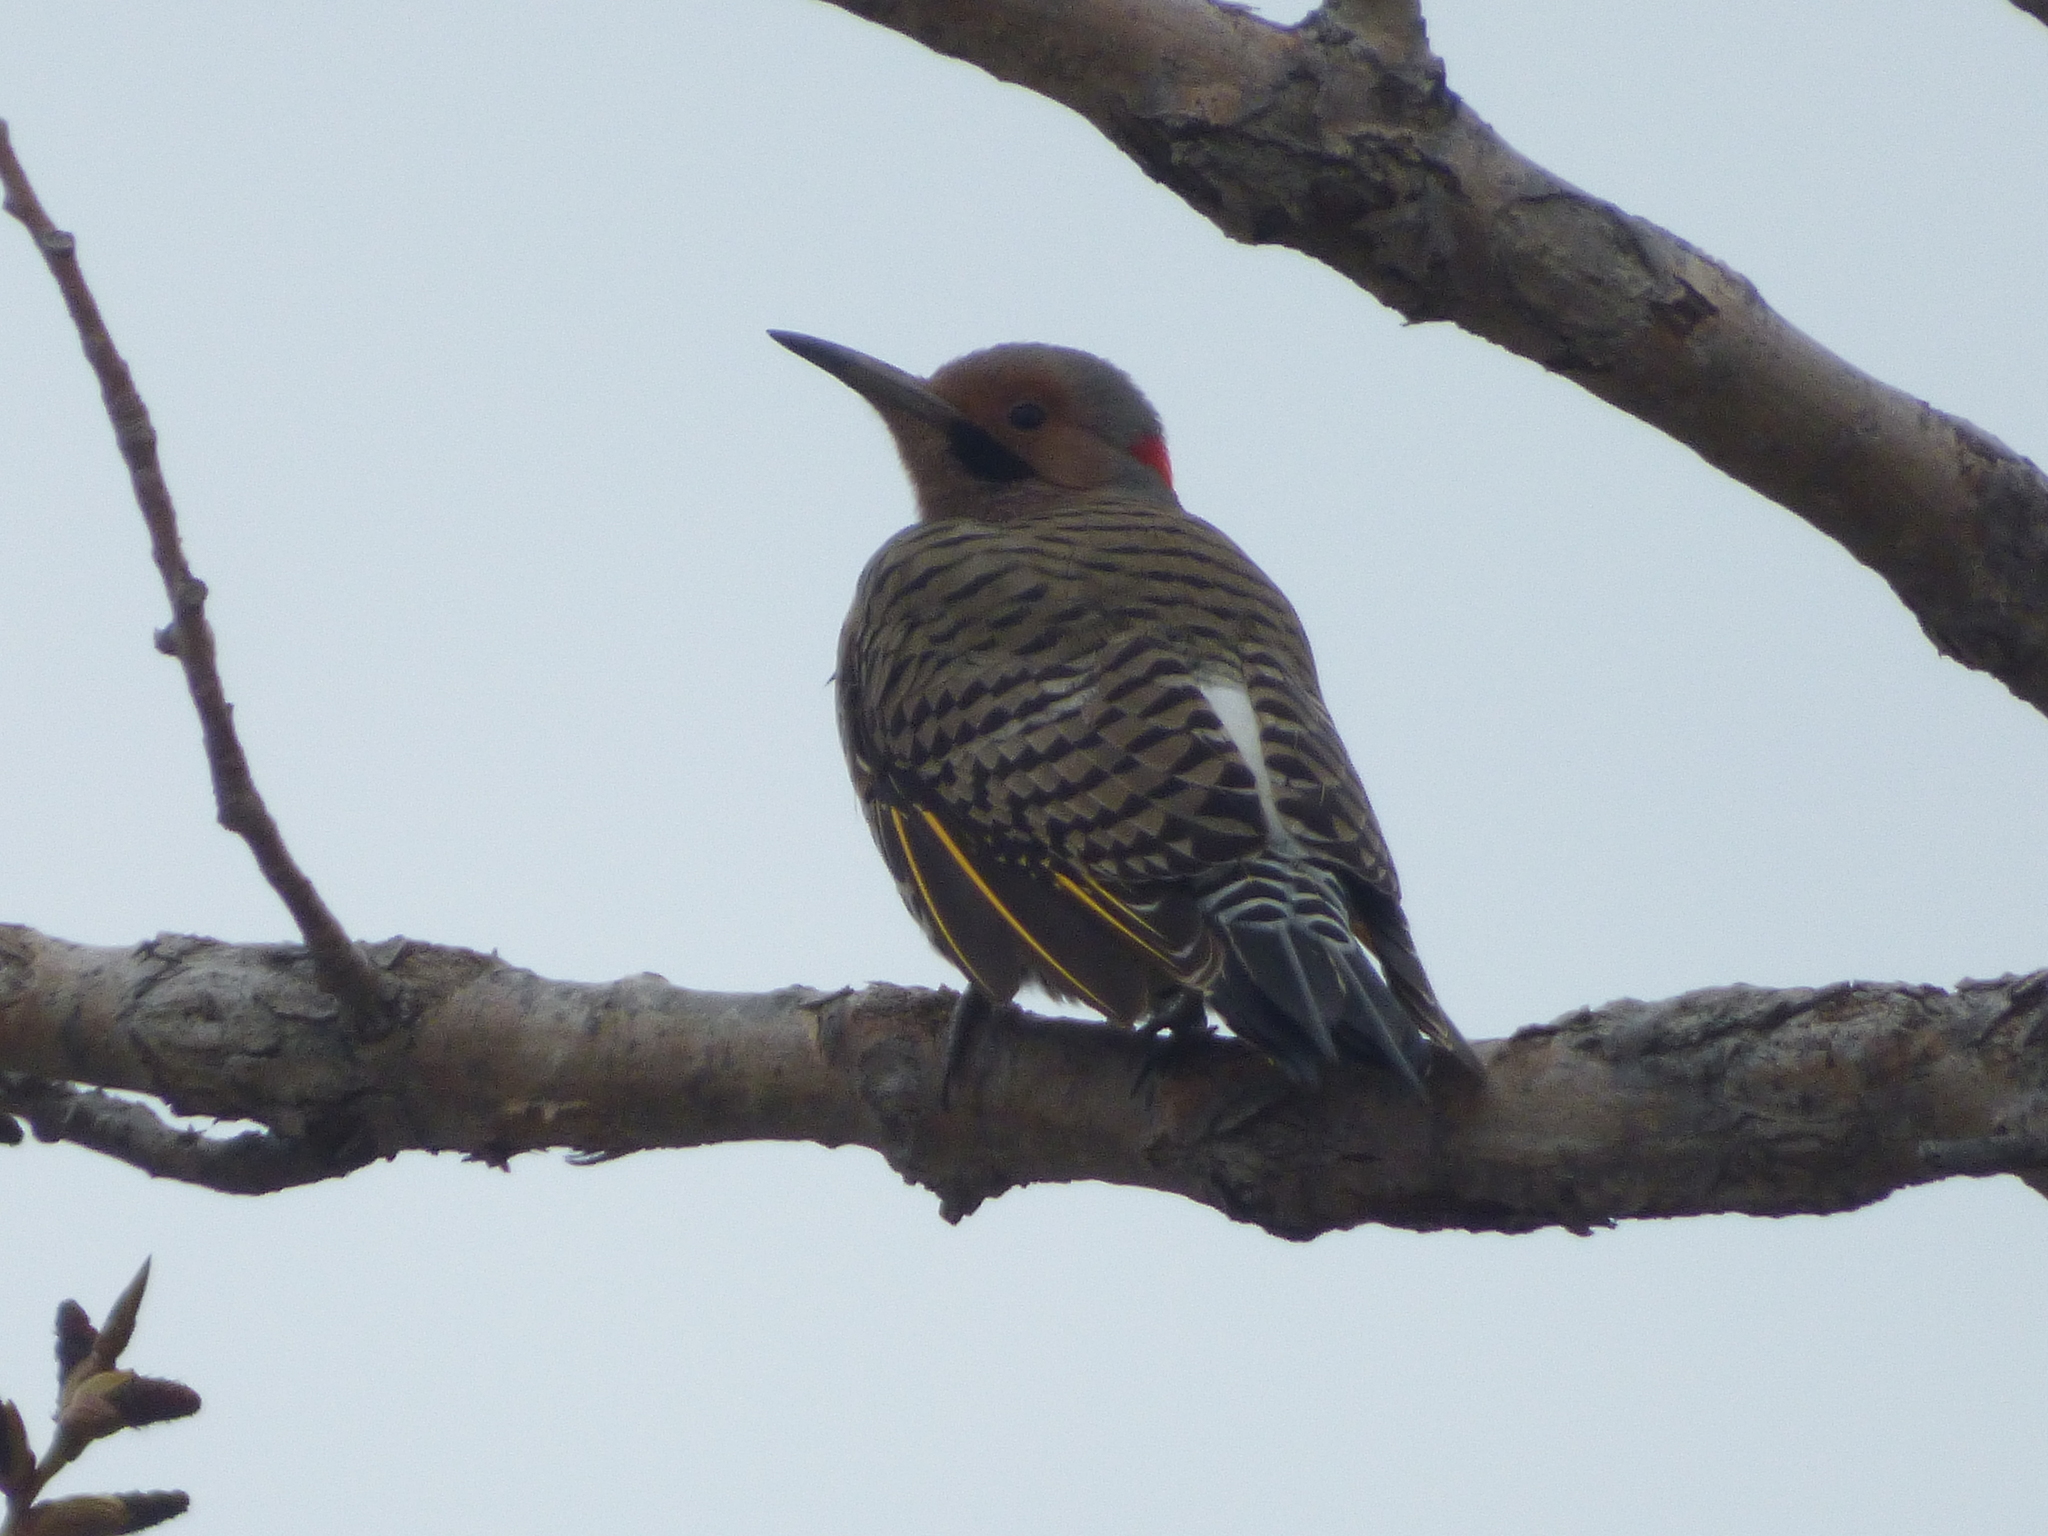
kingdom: Animalia
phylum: Chordata
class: Aves
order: Piciformes
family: Picidae
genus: Colaptes
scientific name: Colaptes auratus
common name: Northern flicker
